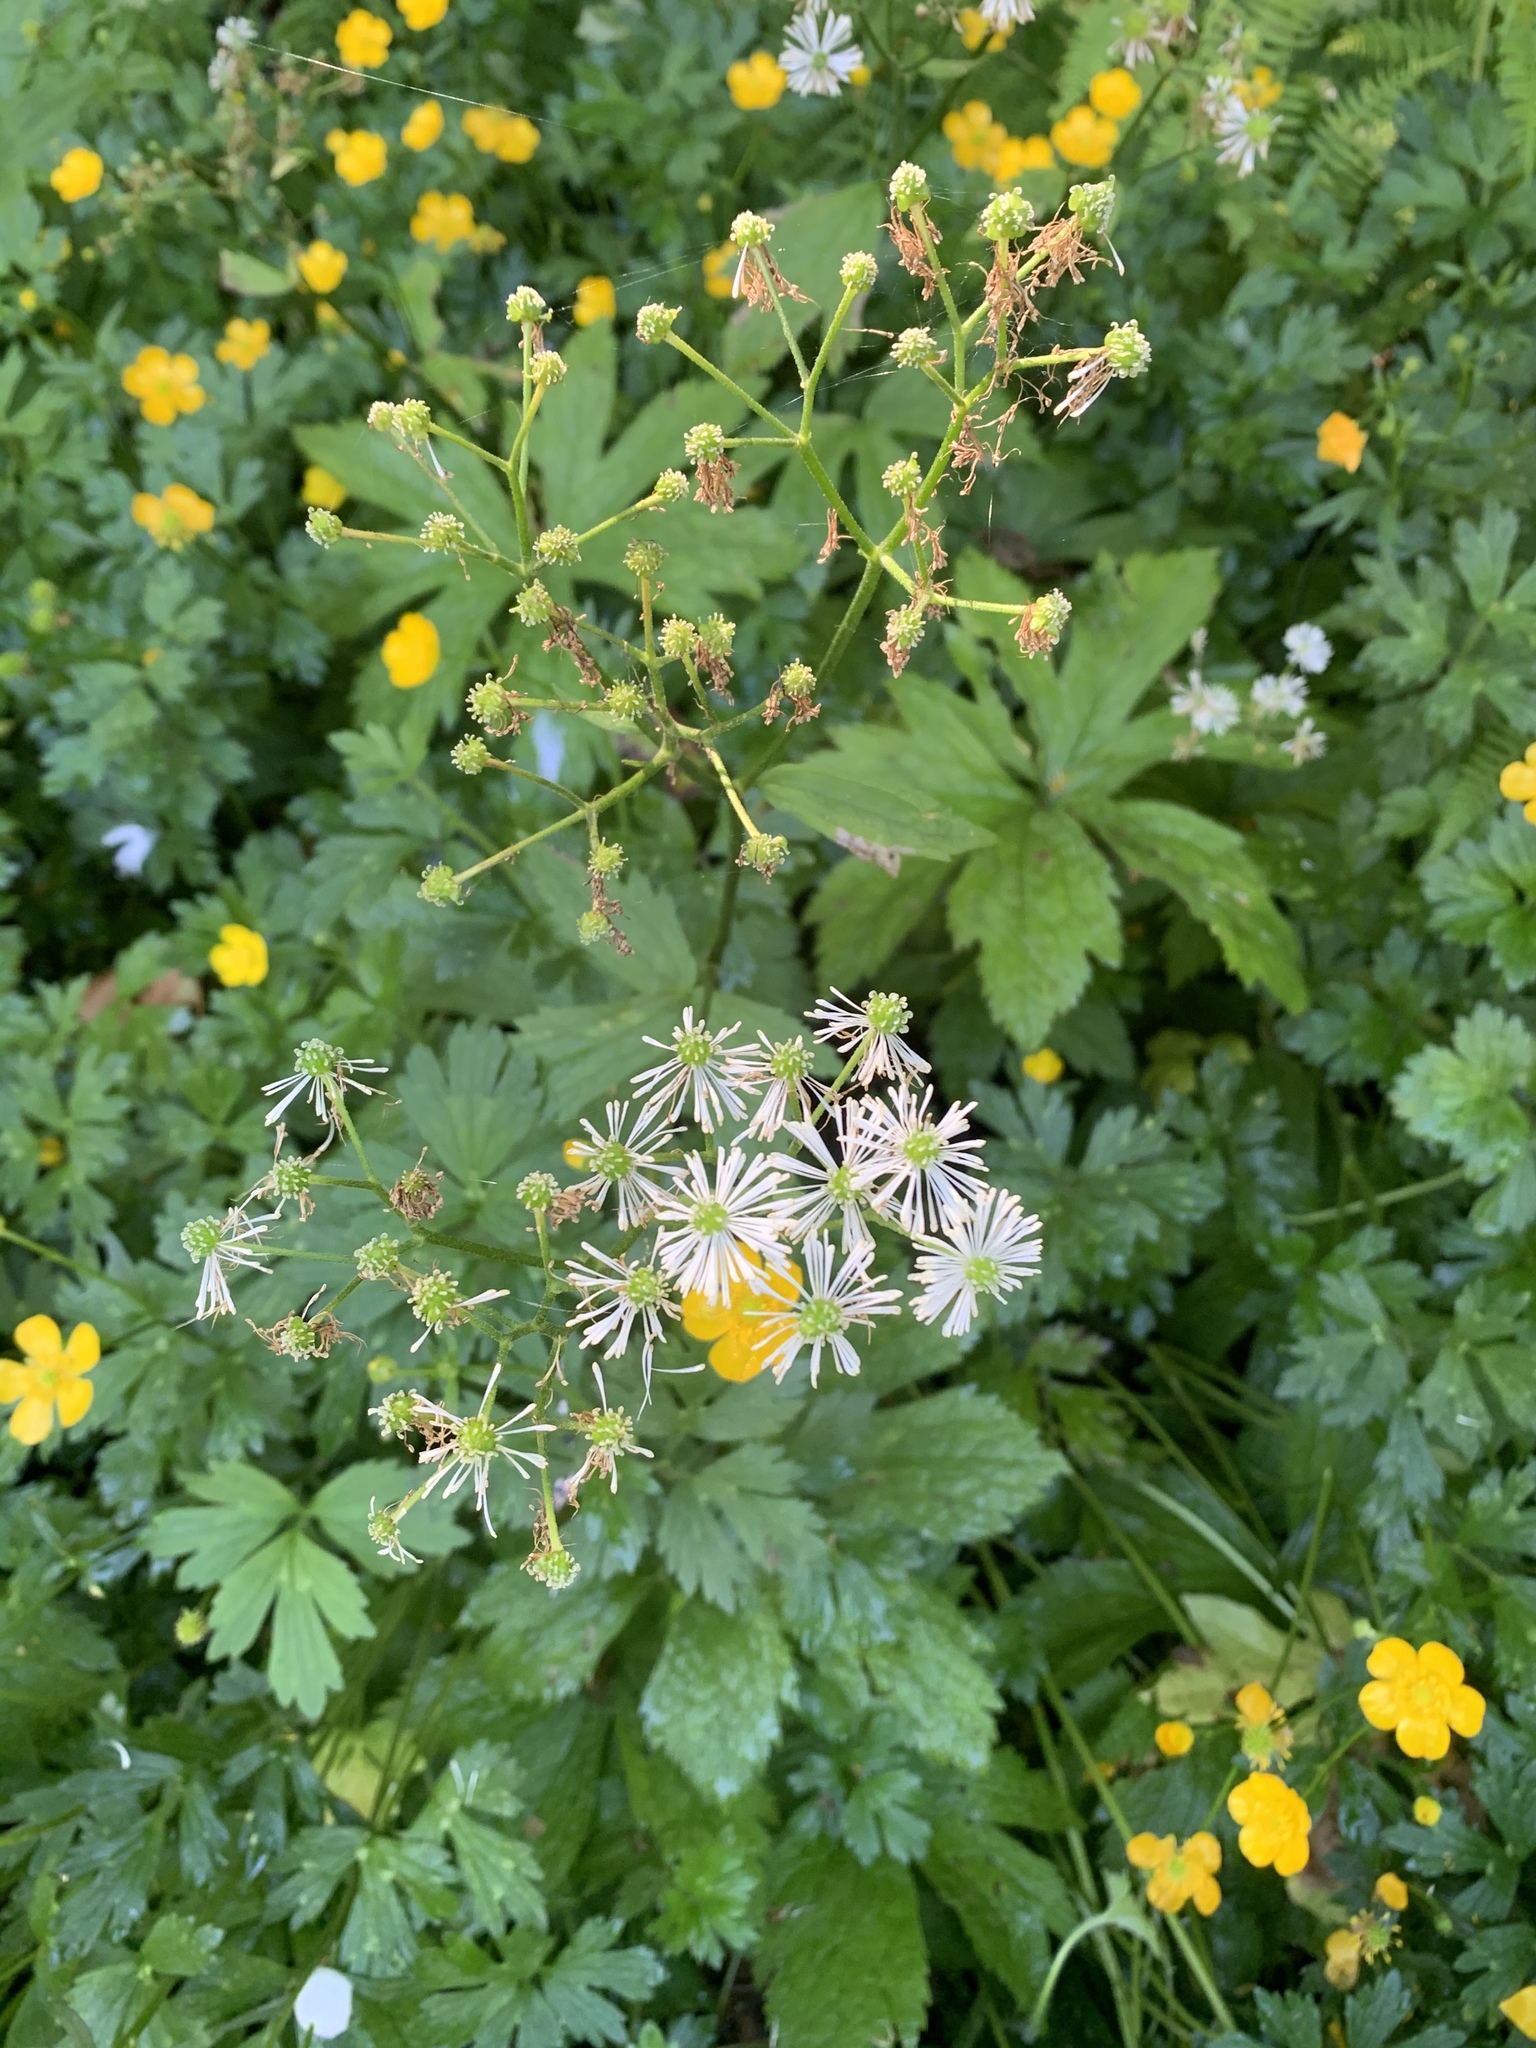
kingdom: Plantae
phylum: Tracheophyta
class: Magnoliopsida
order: Ranunculales
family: Ranunculaceae
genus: Trautvetteria
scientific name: Trautvetteria carolinensis
